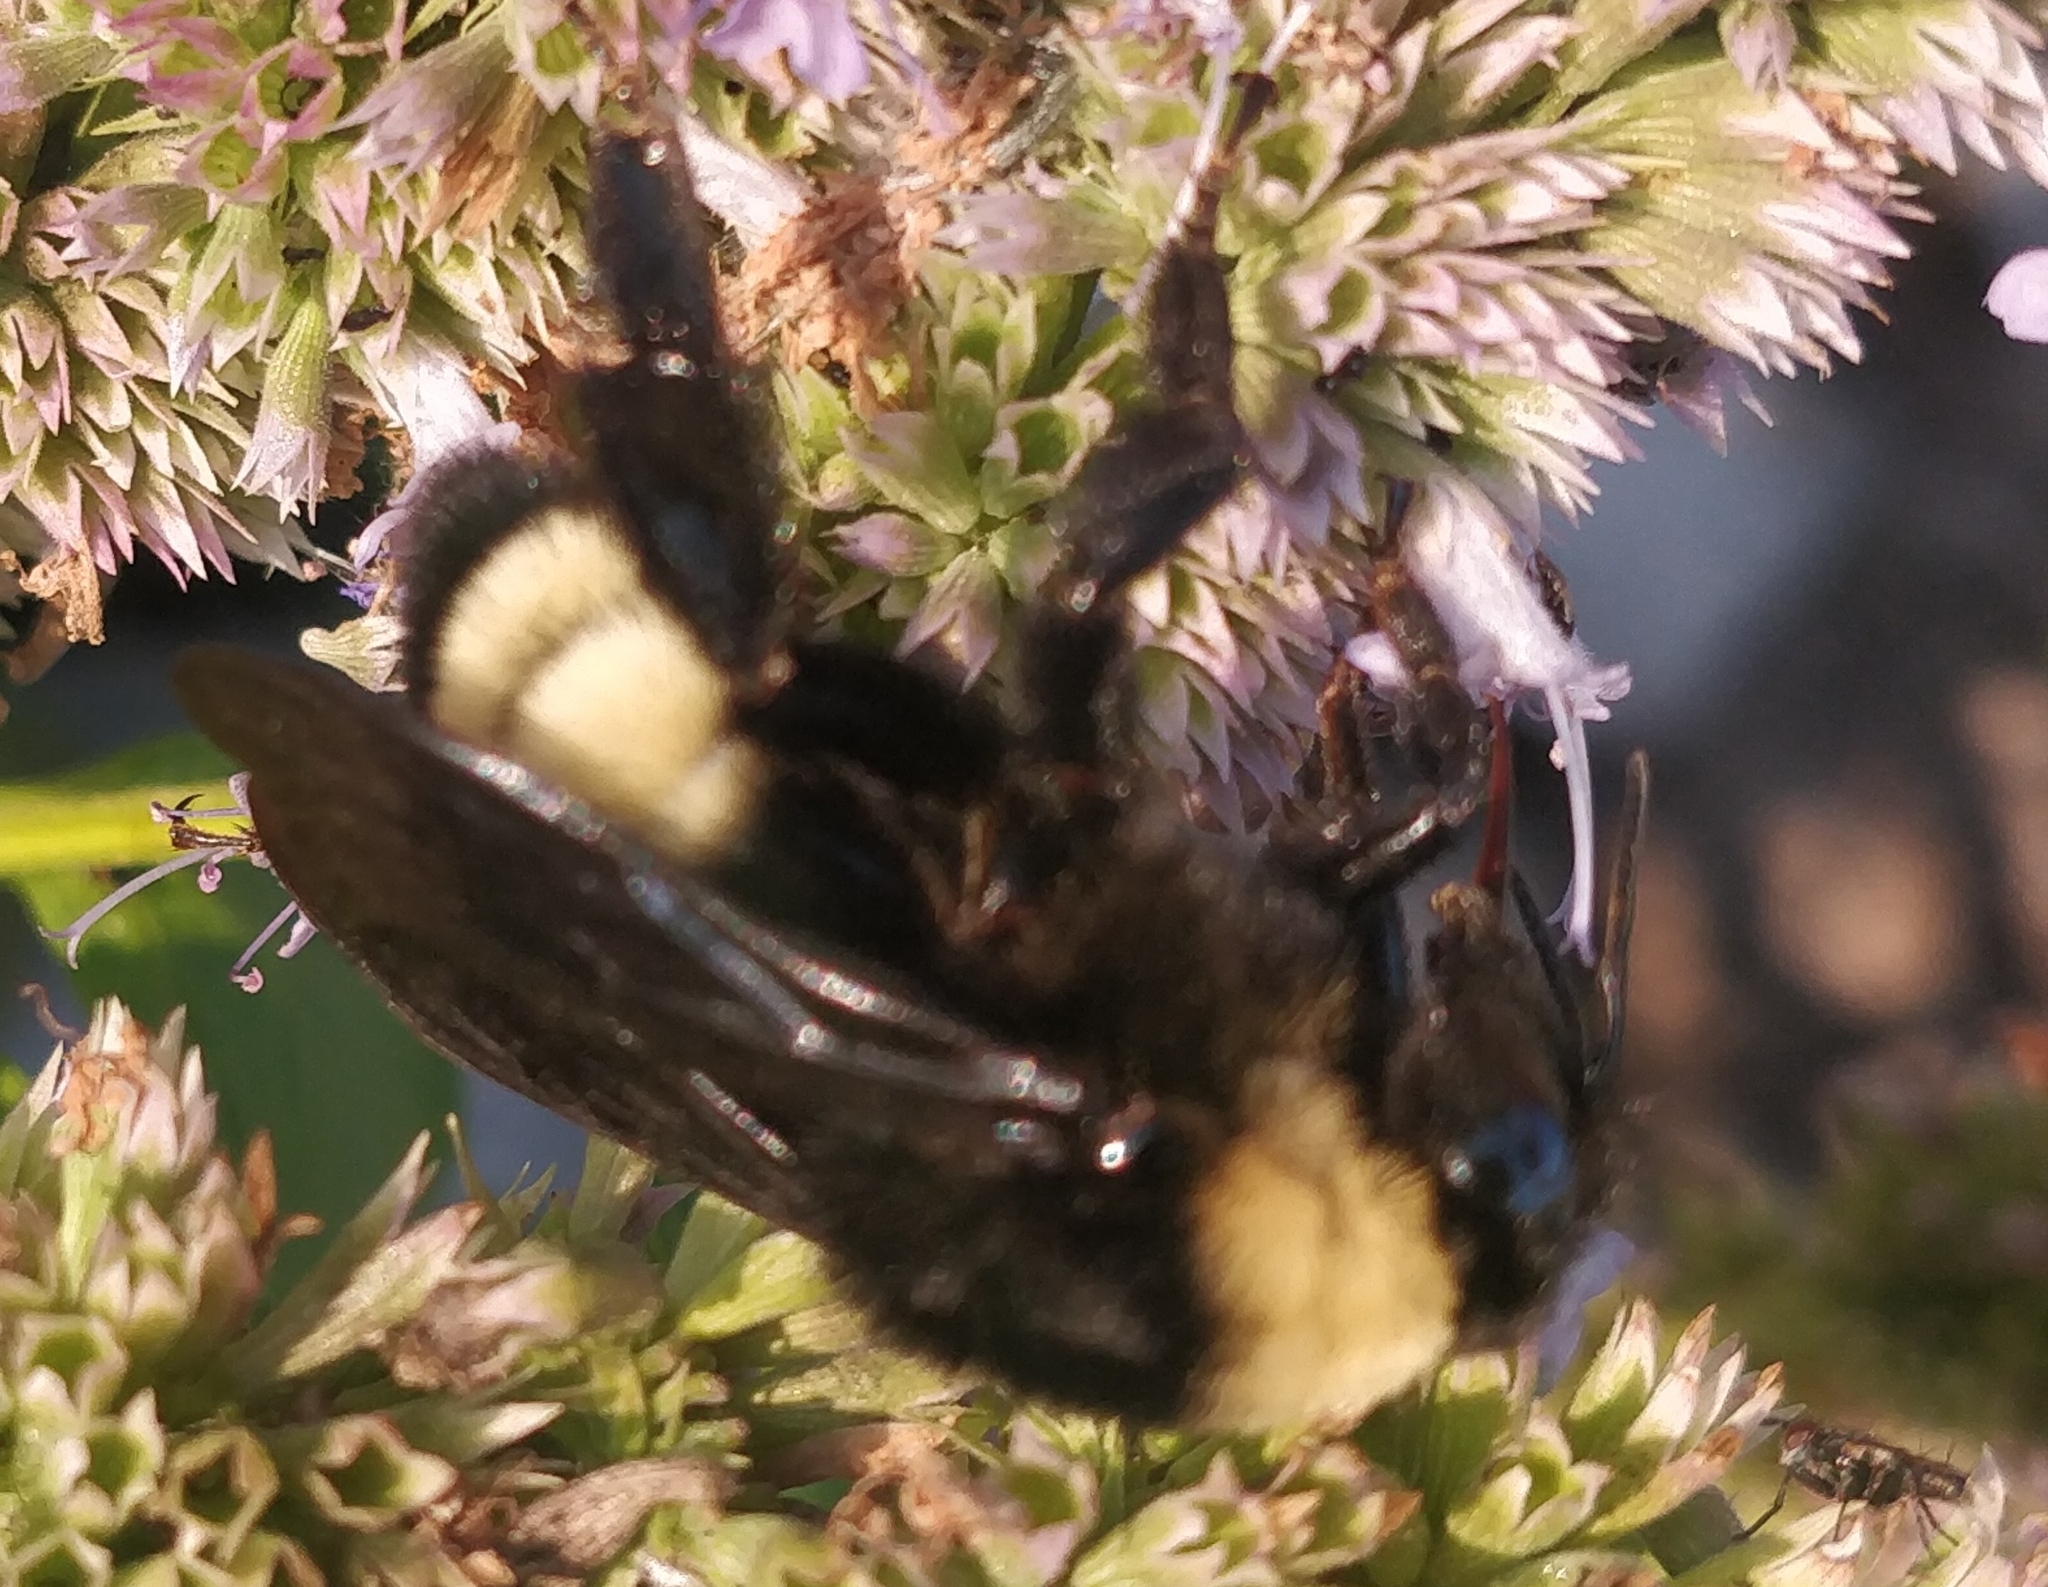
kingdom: Animalia
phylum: Arthropoda
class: Insecta
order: Hymenoptera
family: Apidae
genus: Bombus
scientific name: Bombus pensylvanicus
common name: Bumble bee
